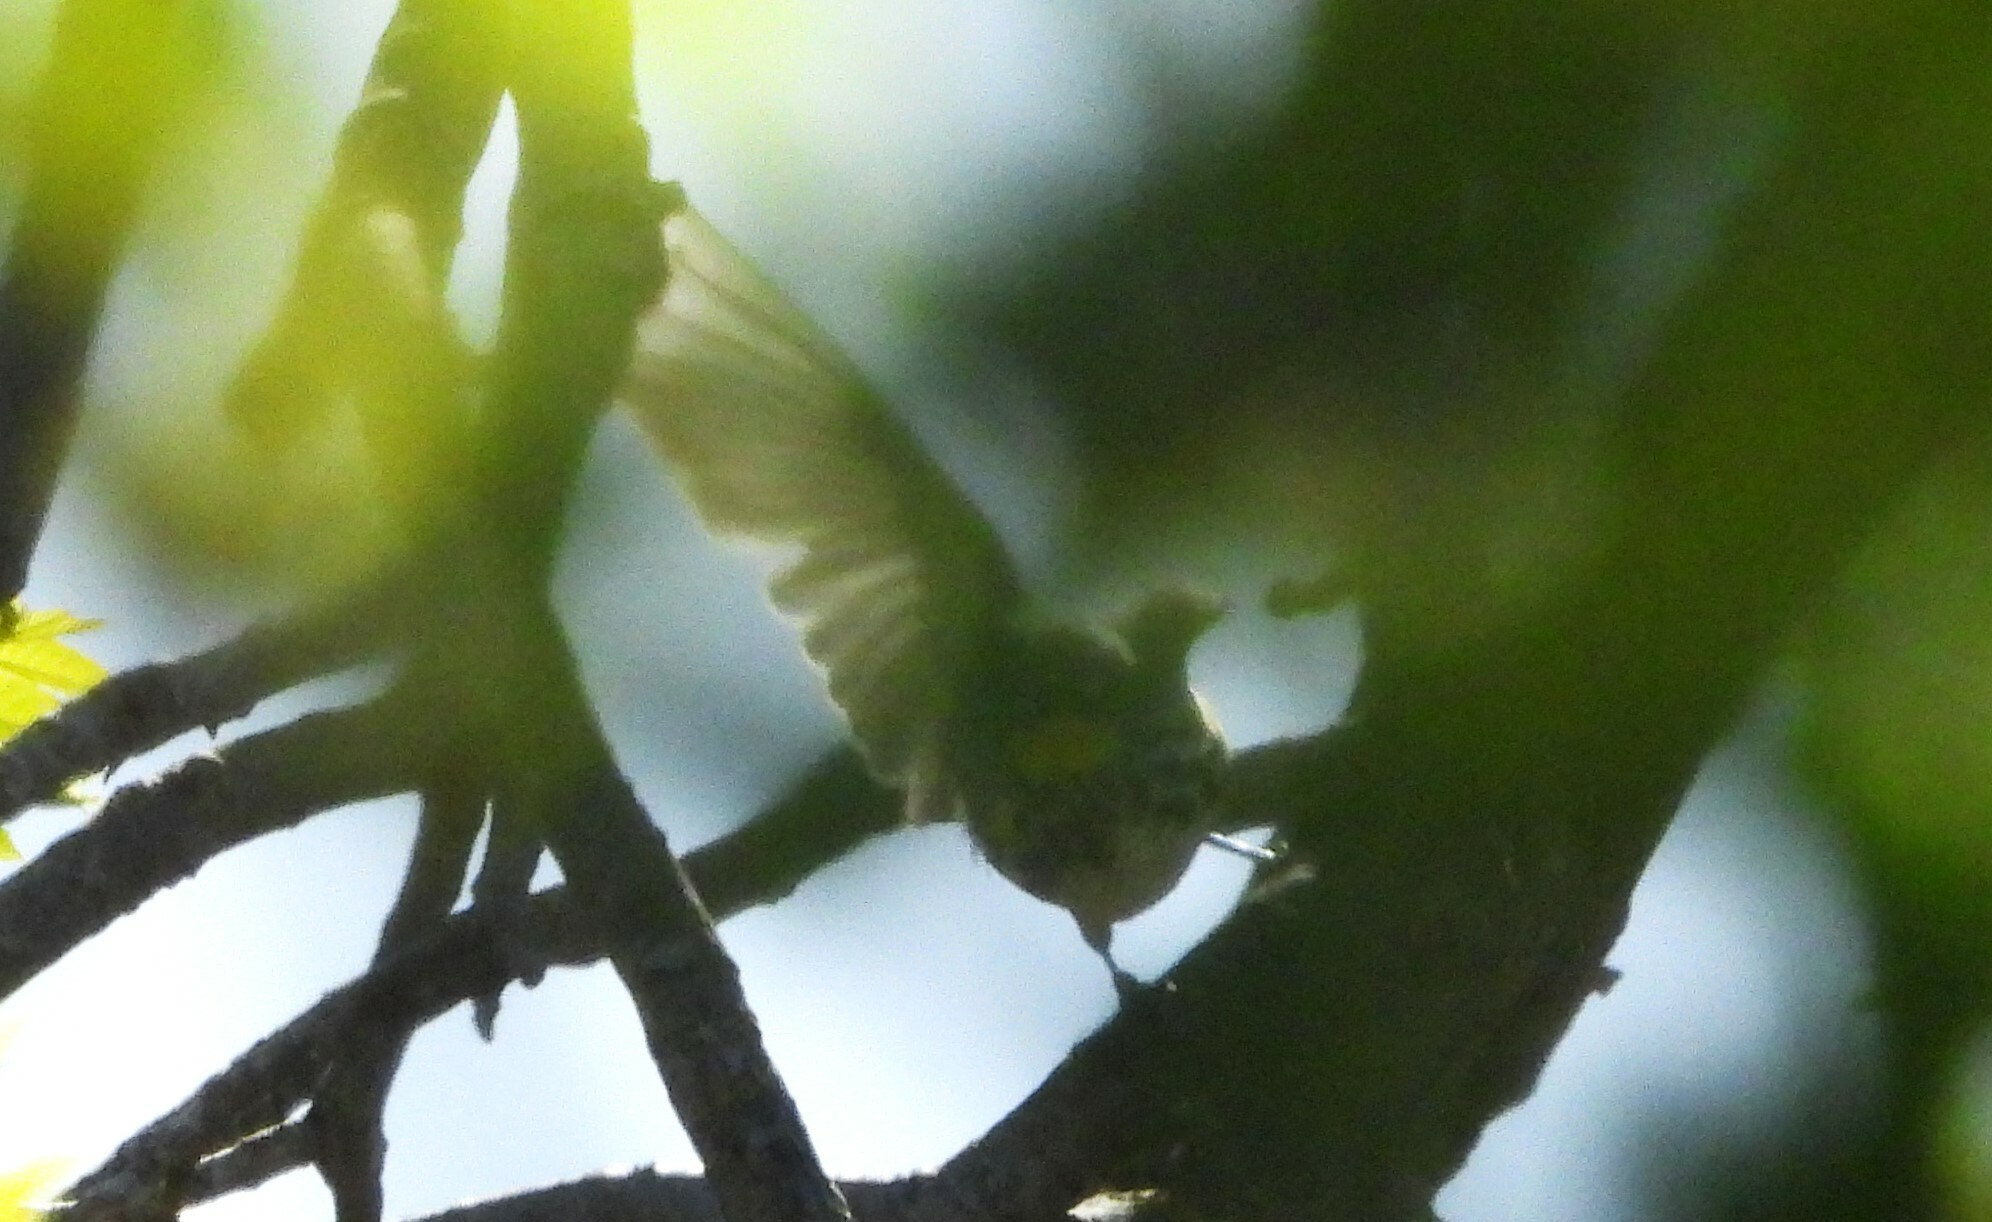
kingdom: Animalia
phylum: Chordata
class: Aves
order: Passeriformes
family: Parulidae
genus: Setophaga
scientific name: Setophaga coronata
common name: Myrtle warbler
